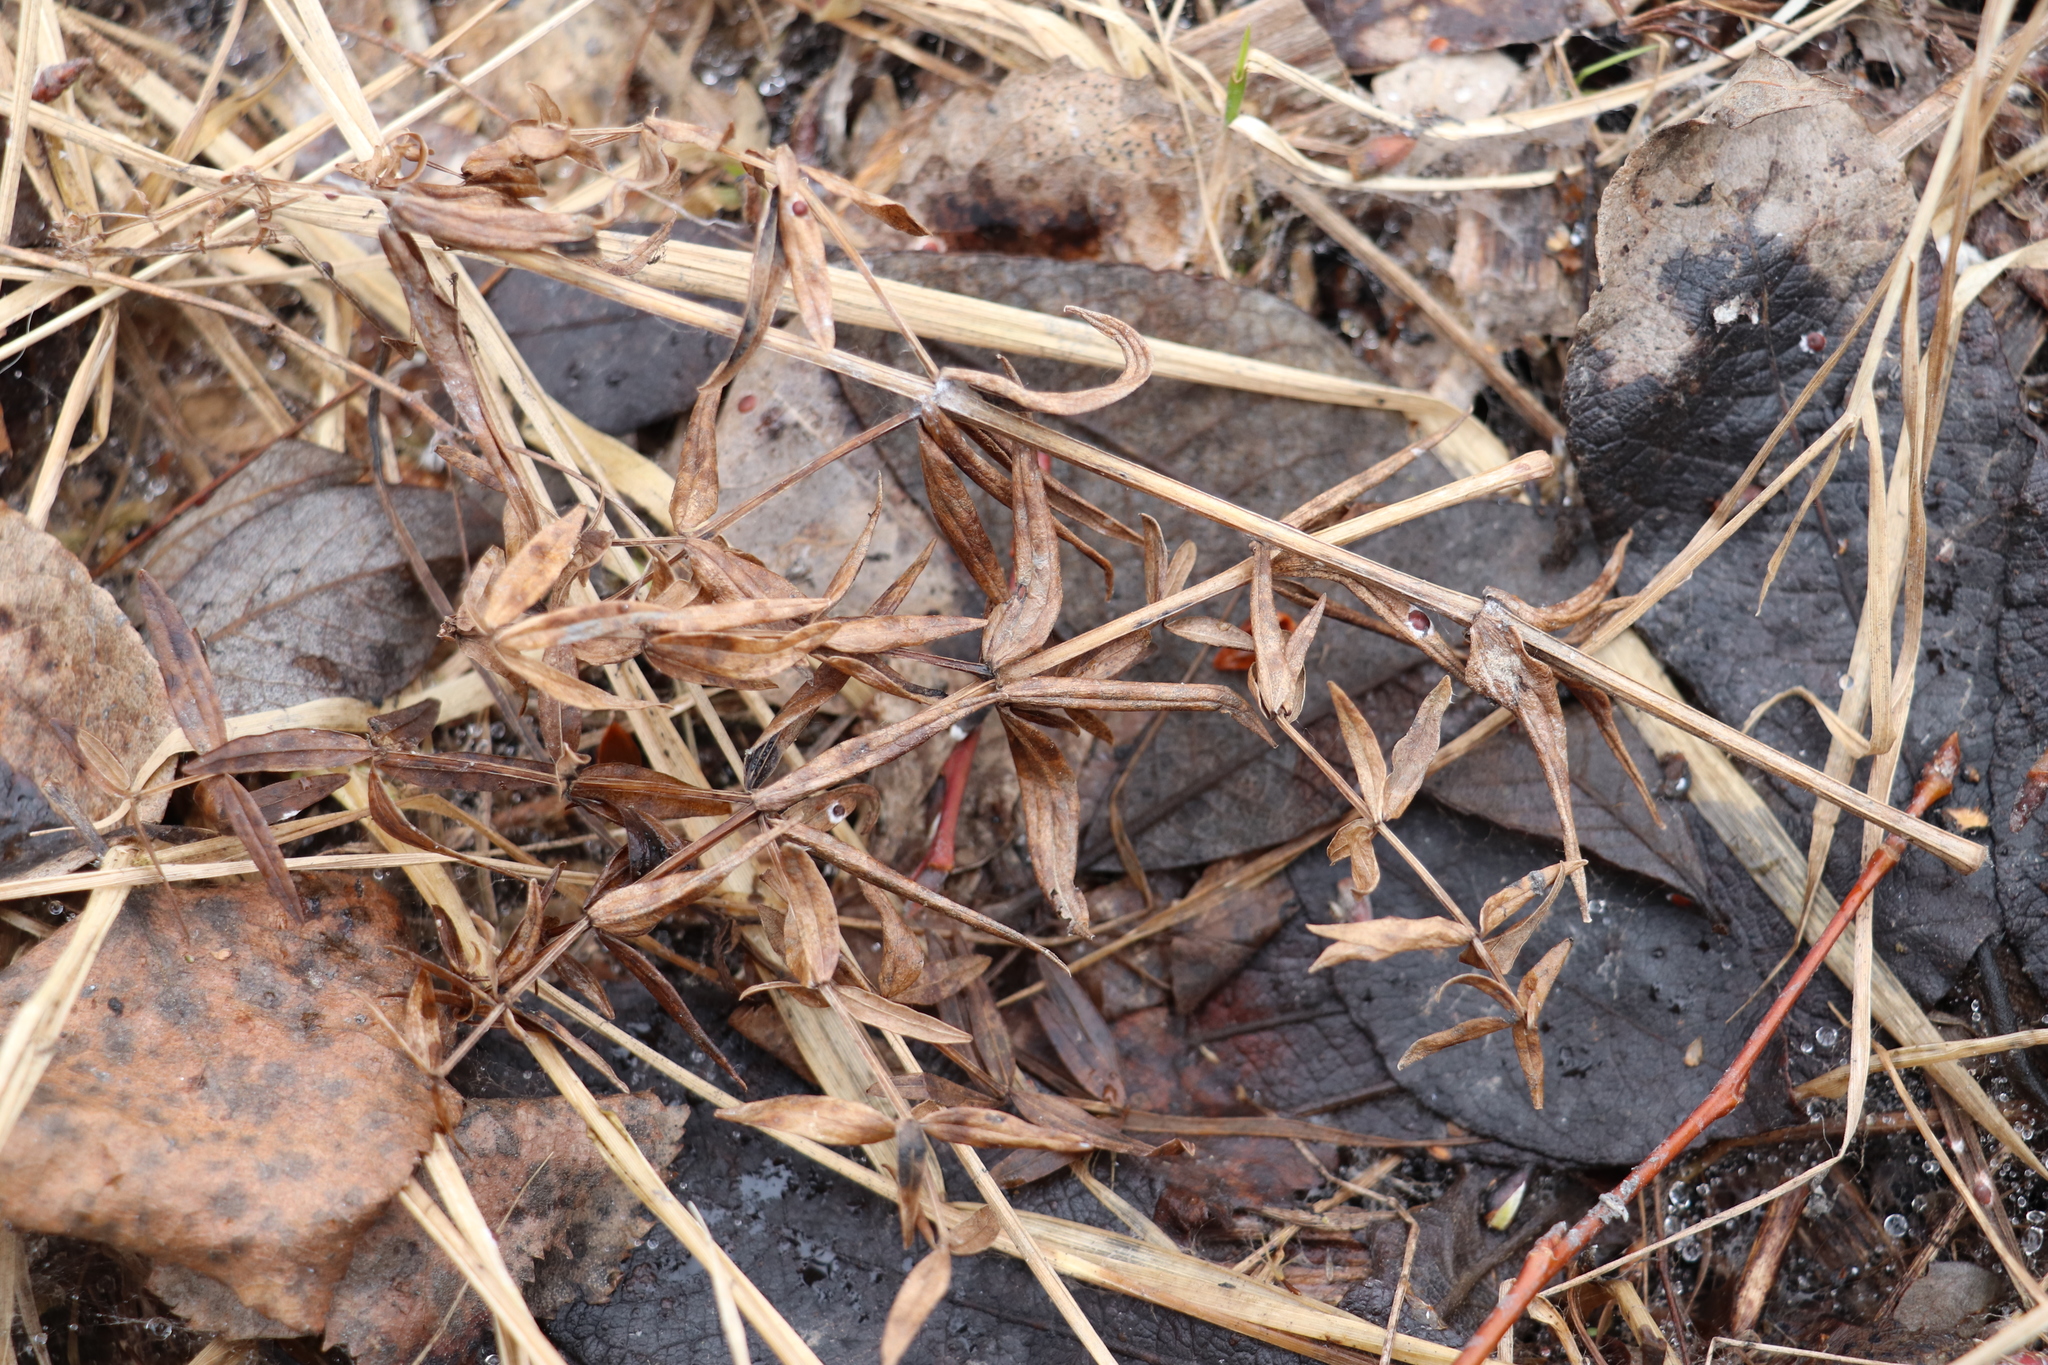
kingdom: Plantae
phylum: Tracheophyta
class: Magnoliopsida
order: Gentianales
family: Rubiaceae
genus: Galium
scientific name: Galium boreale
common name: Northern bedstraw
